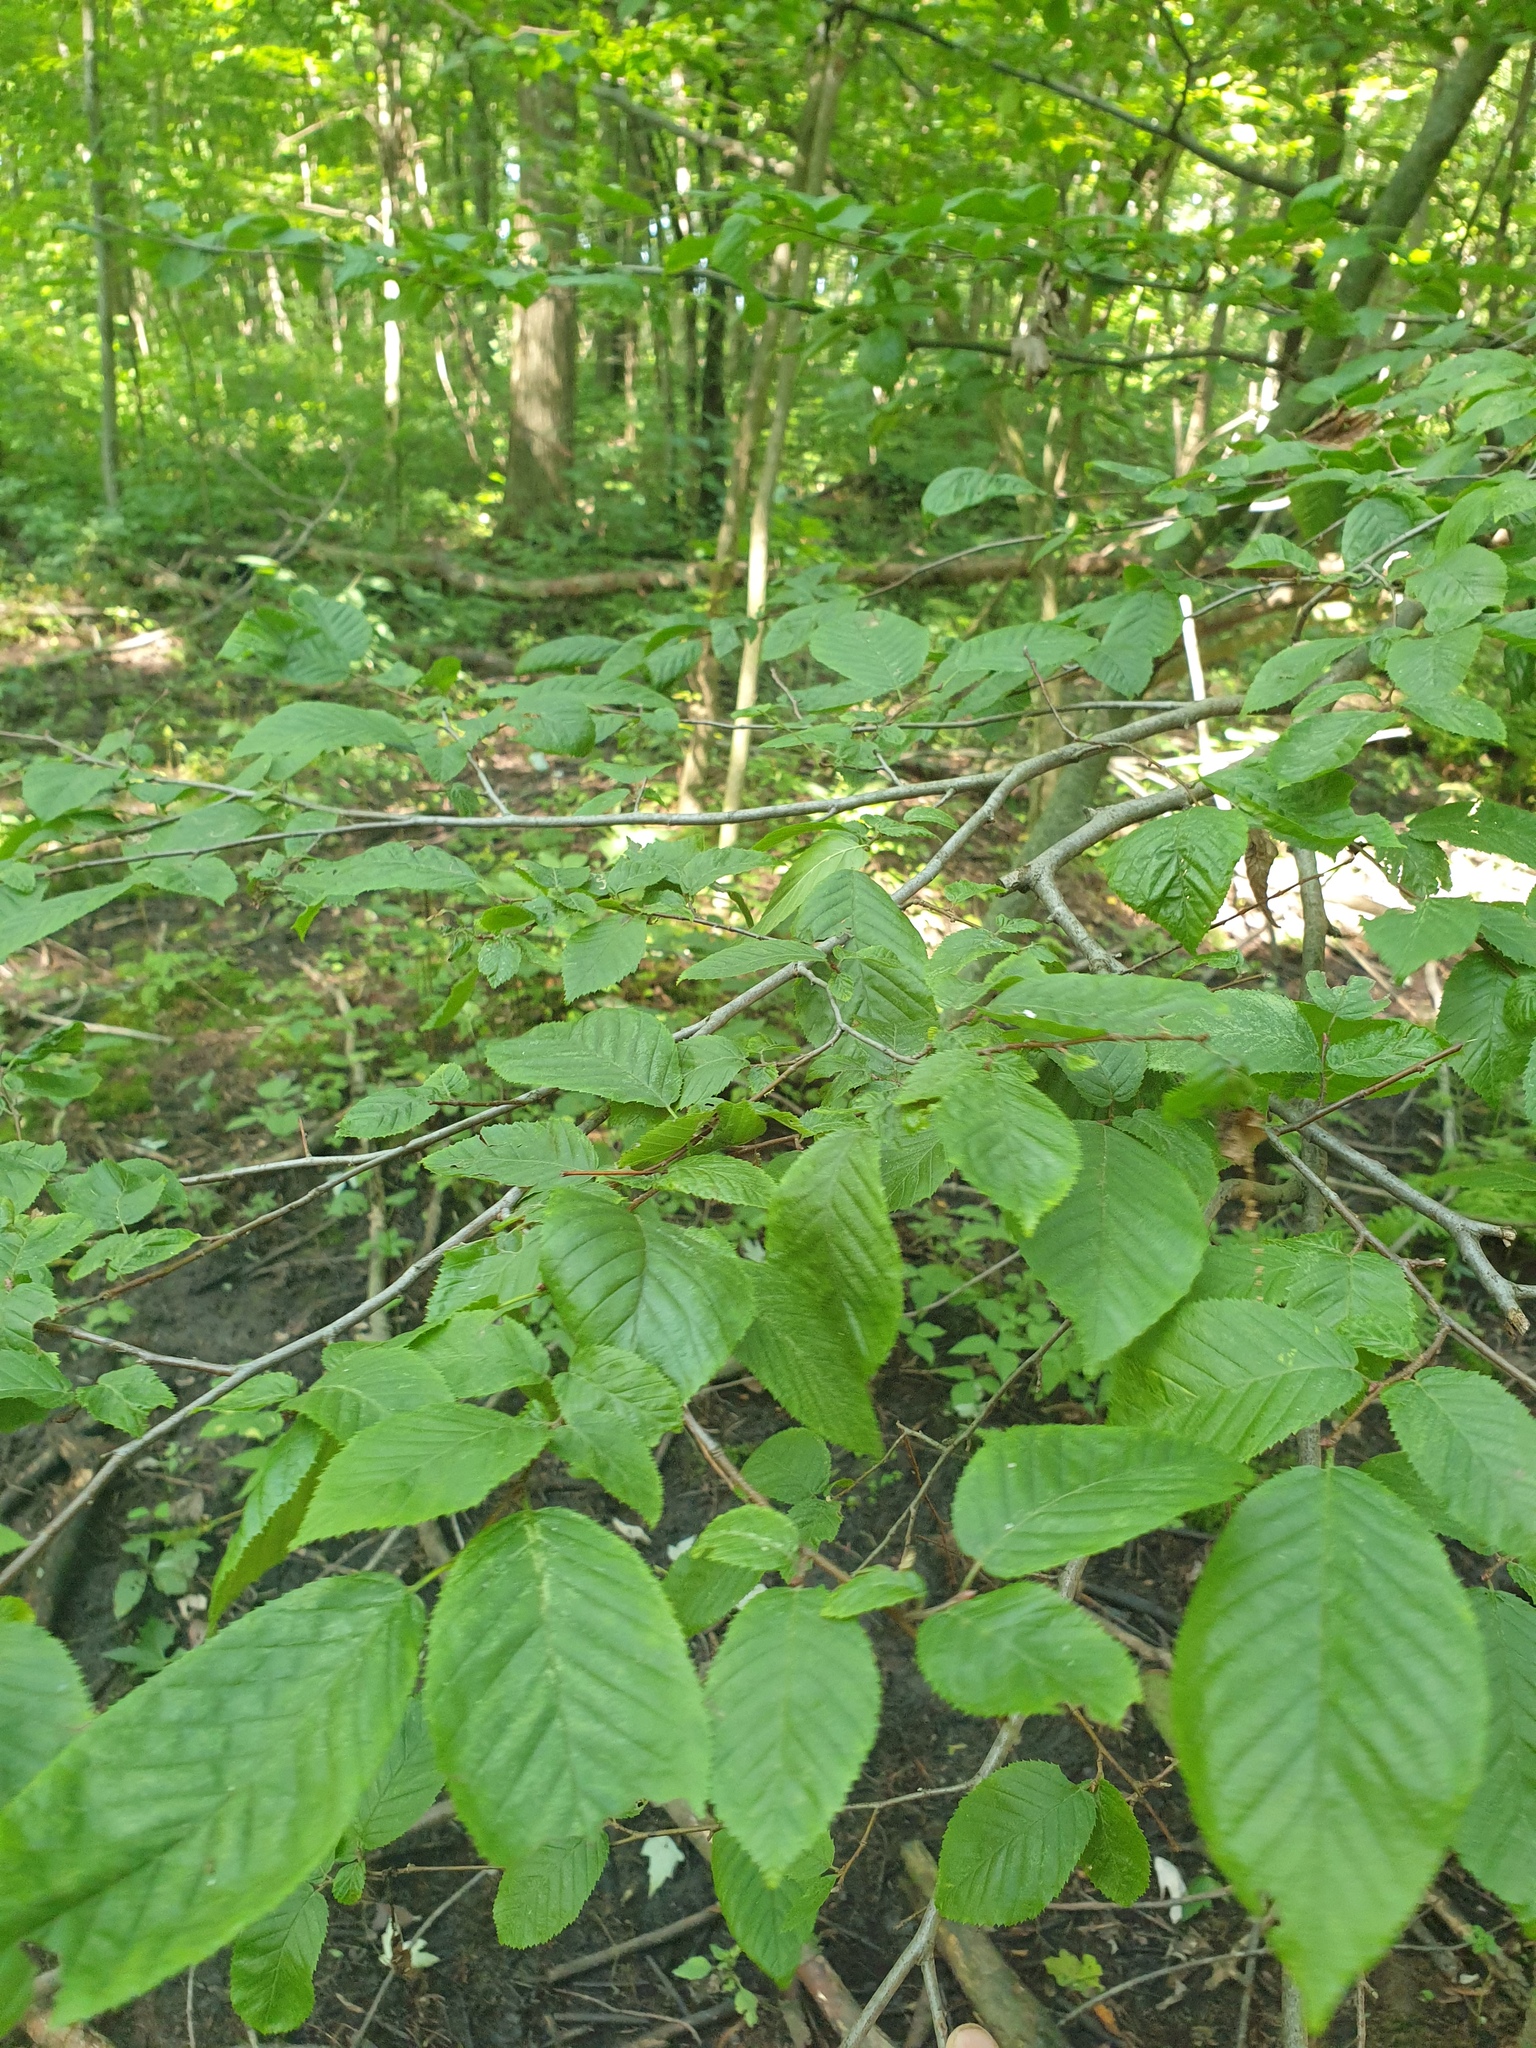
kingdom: Plantae
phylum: Tracheophyta
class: Magnoliopsida
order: Fagales
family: Betulaceae
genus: Carpinus
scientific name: Carpinus caroliniana
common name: American hornbeam
